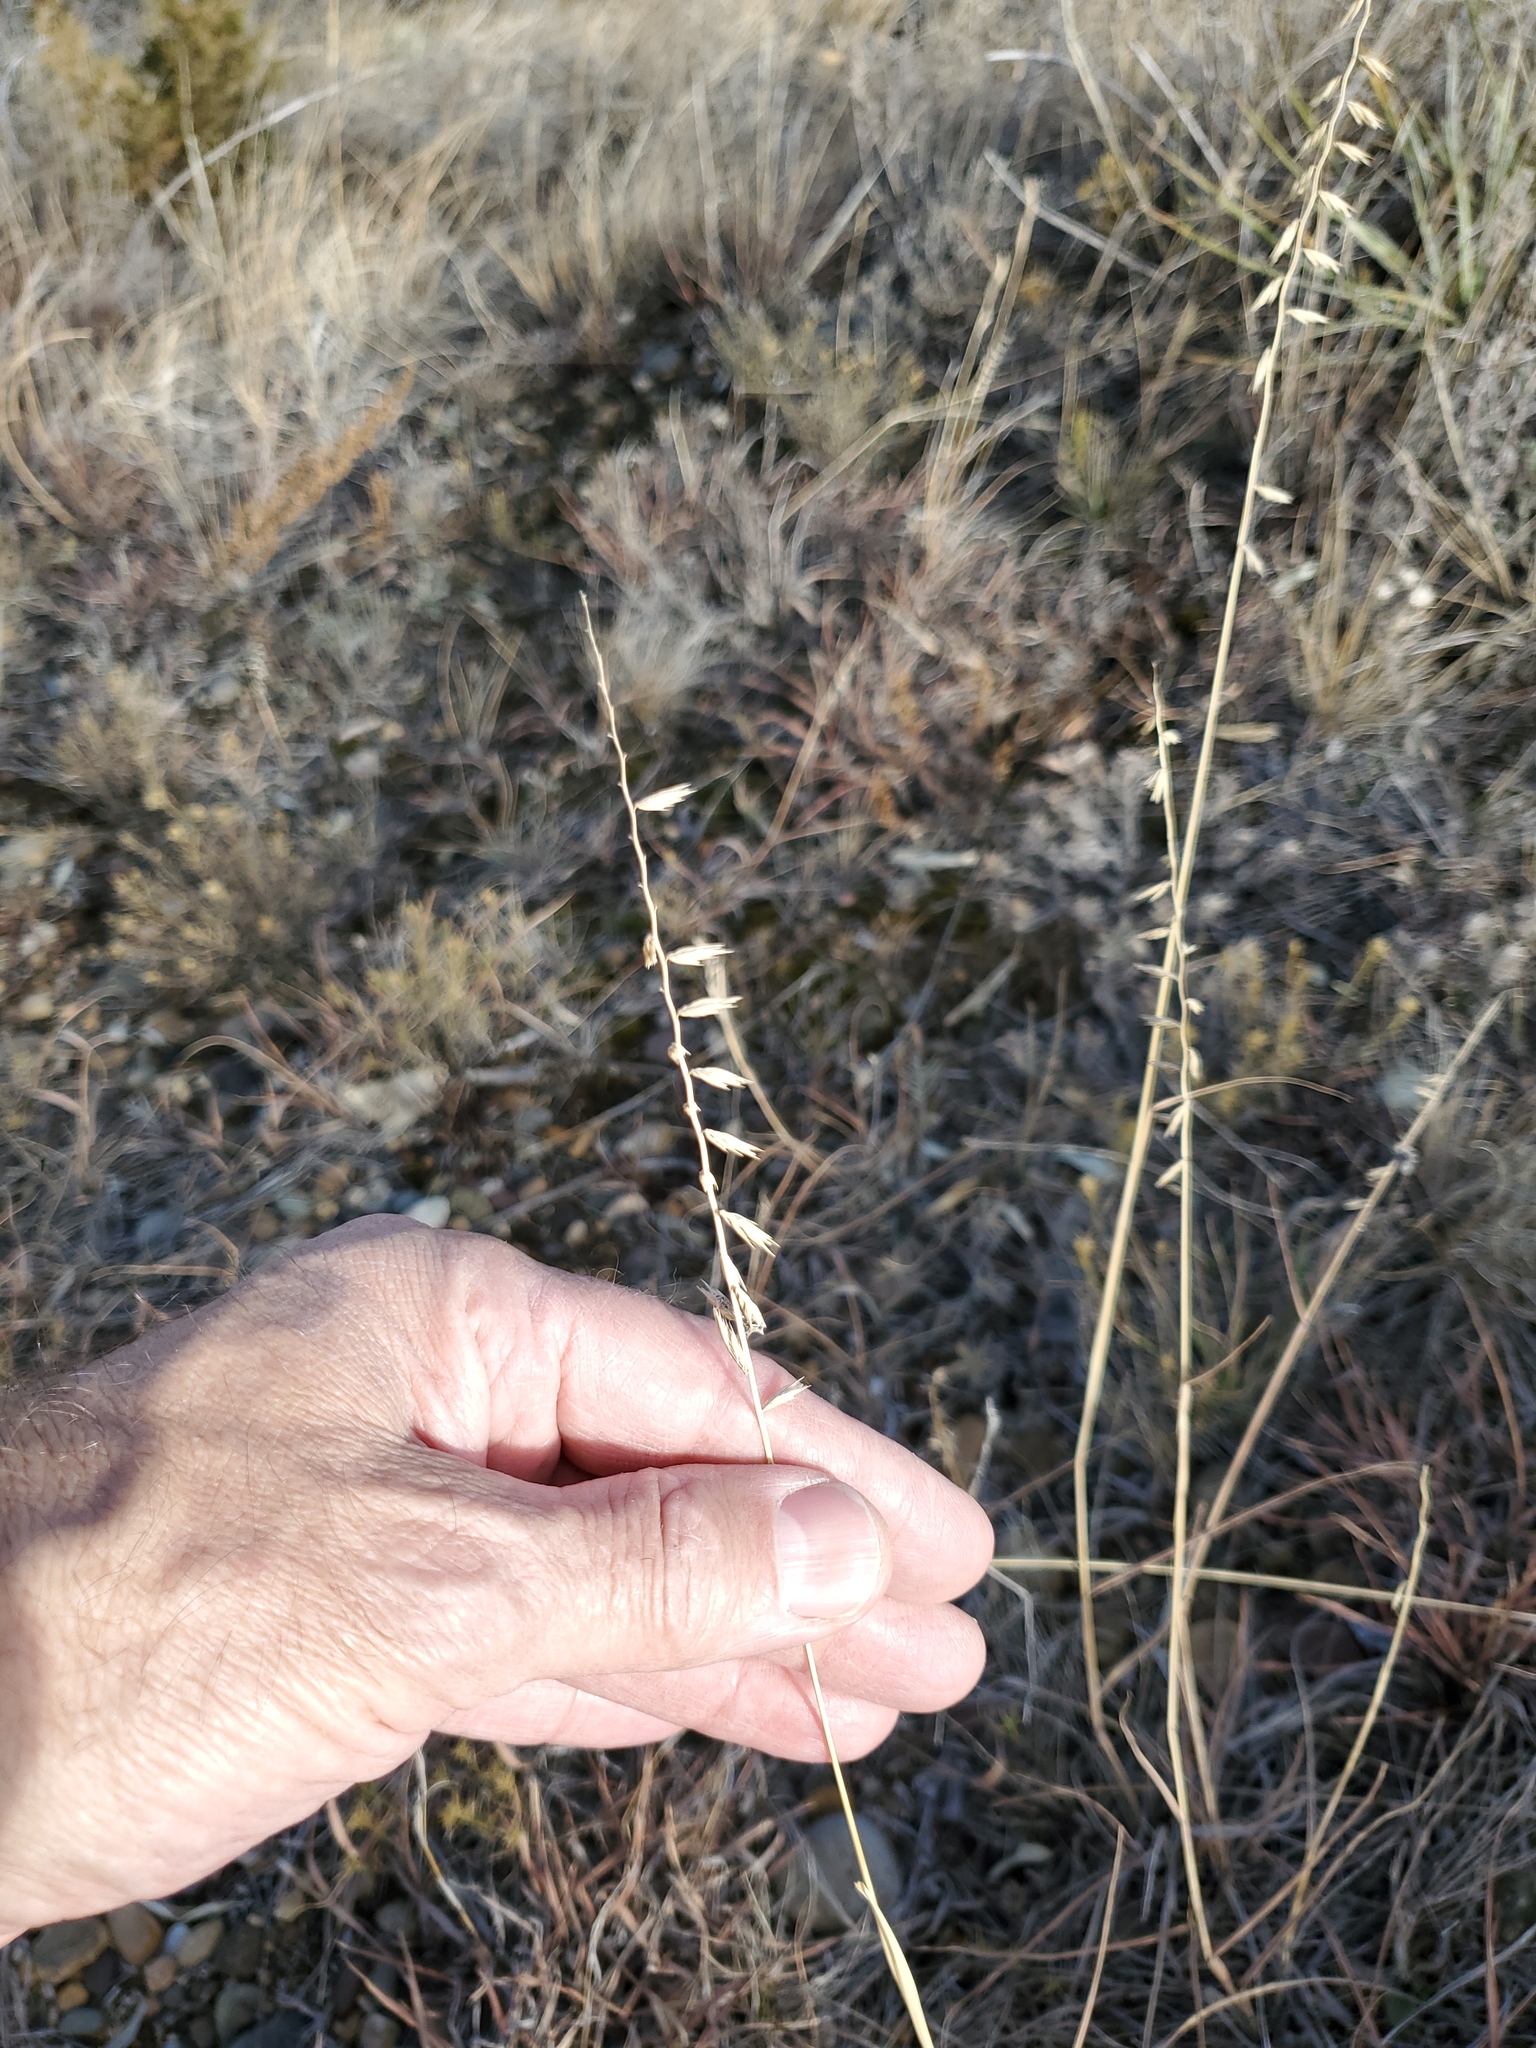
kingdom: Plantae
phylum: Tracheophyta
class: Liliopsida
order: Poales
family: Poaceae
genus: Bouteloua
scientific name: Bouteloua curtipendula
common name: Side-oats grama
